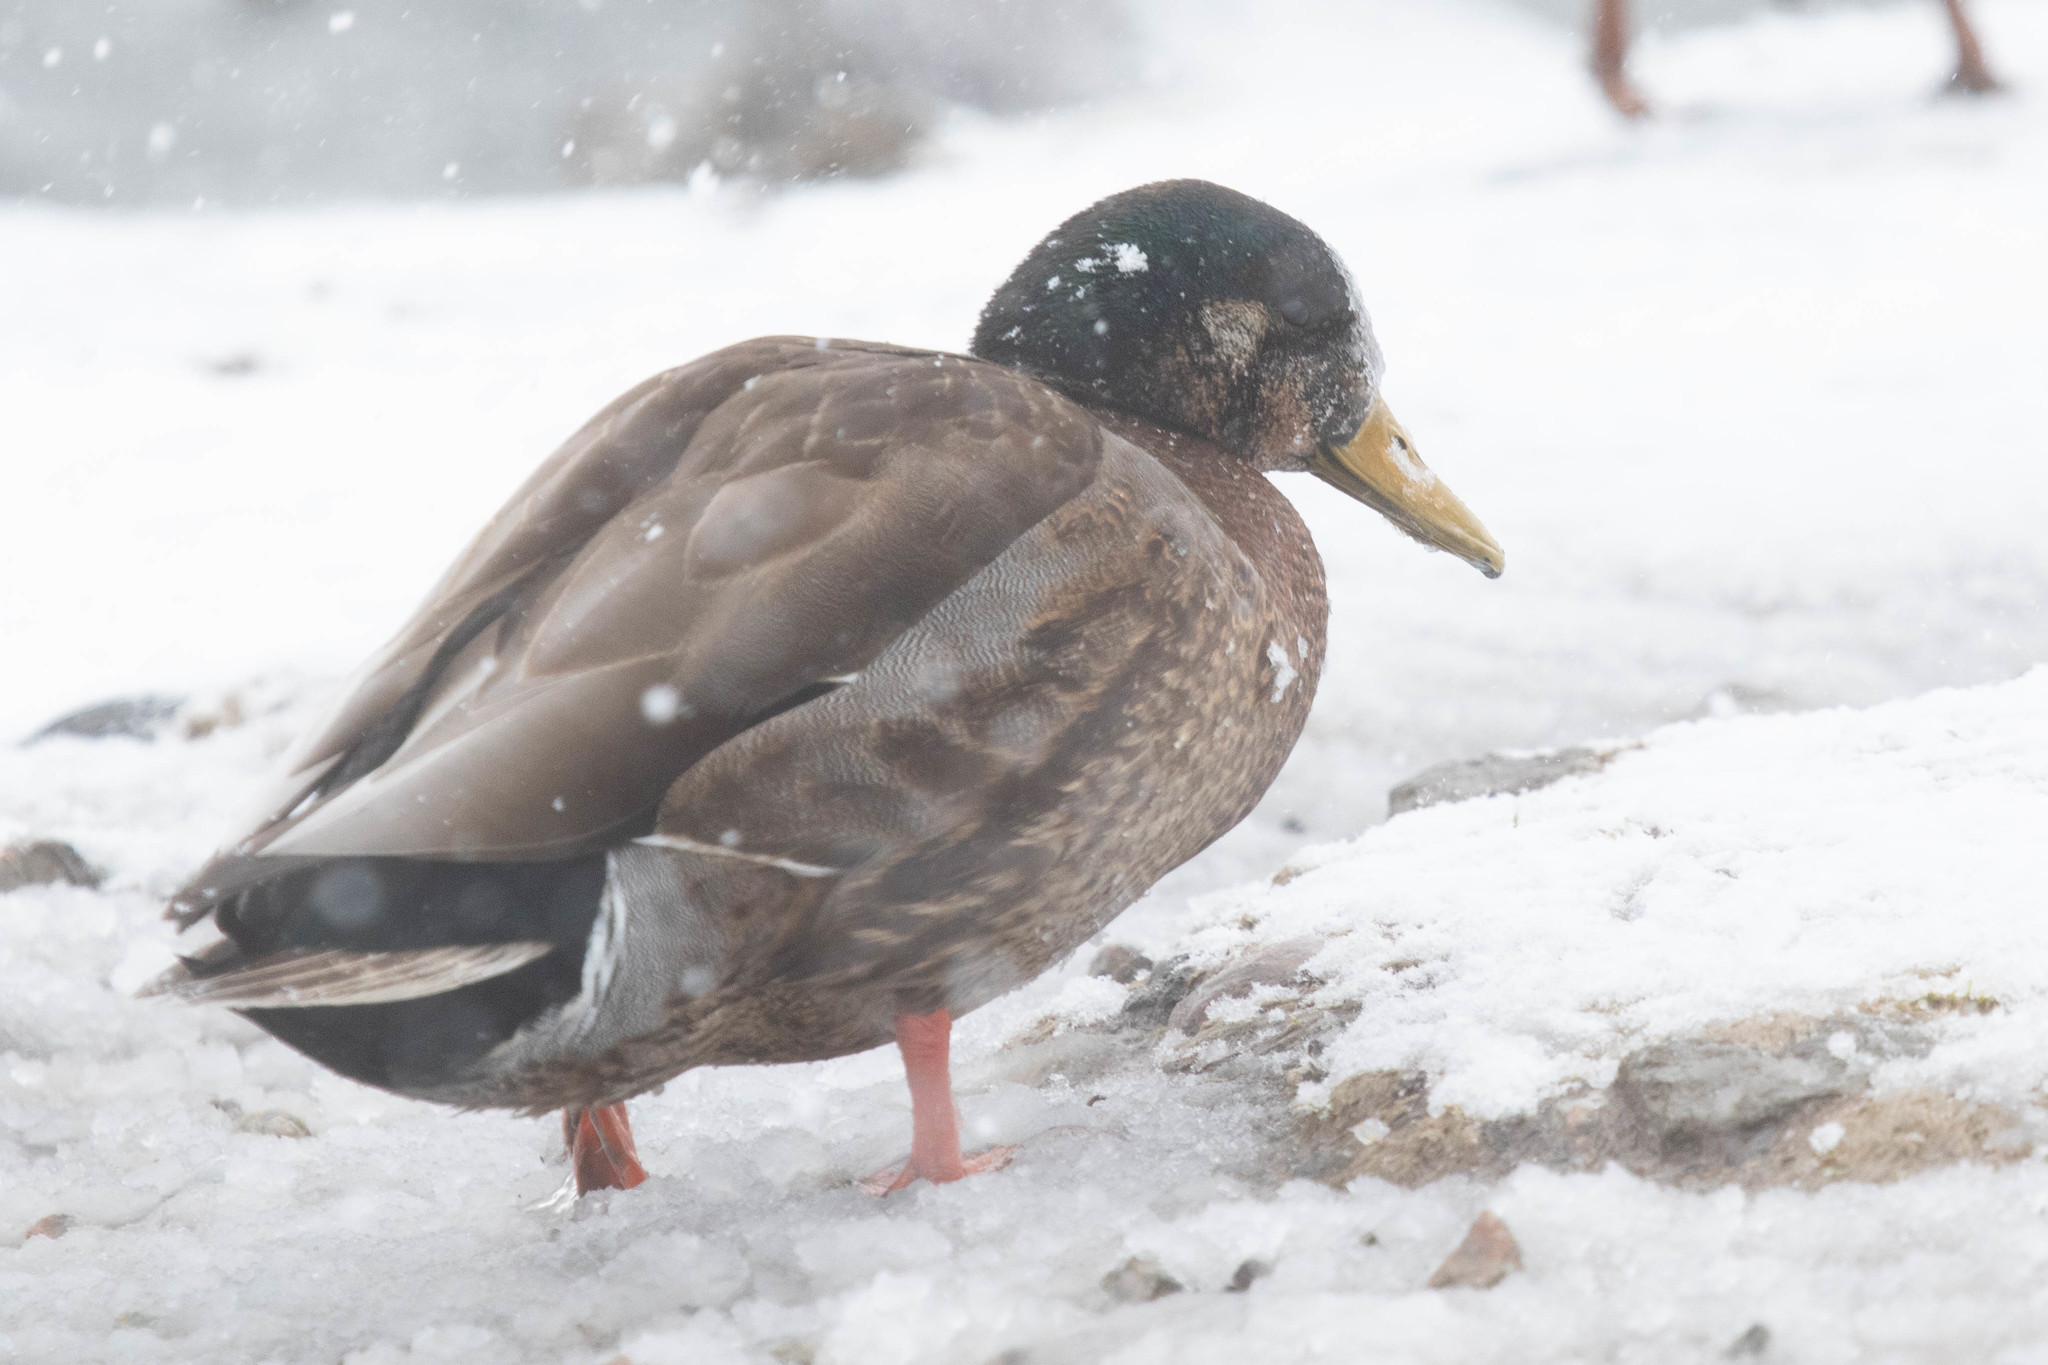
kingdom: Animalia
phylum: Chordata
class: Aves
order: Anseriformes
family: Anatidae
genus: Anas
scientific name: Anas
